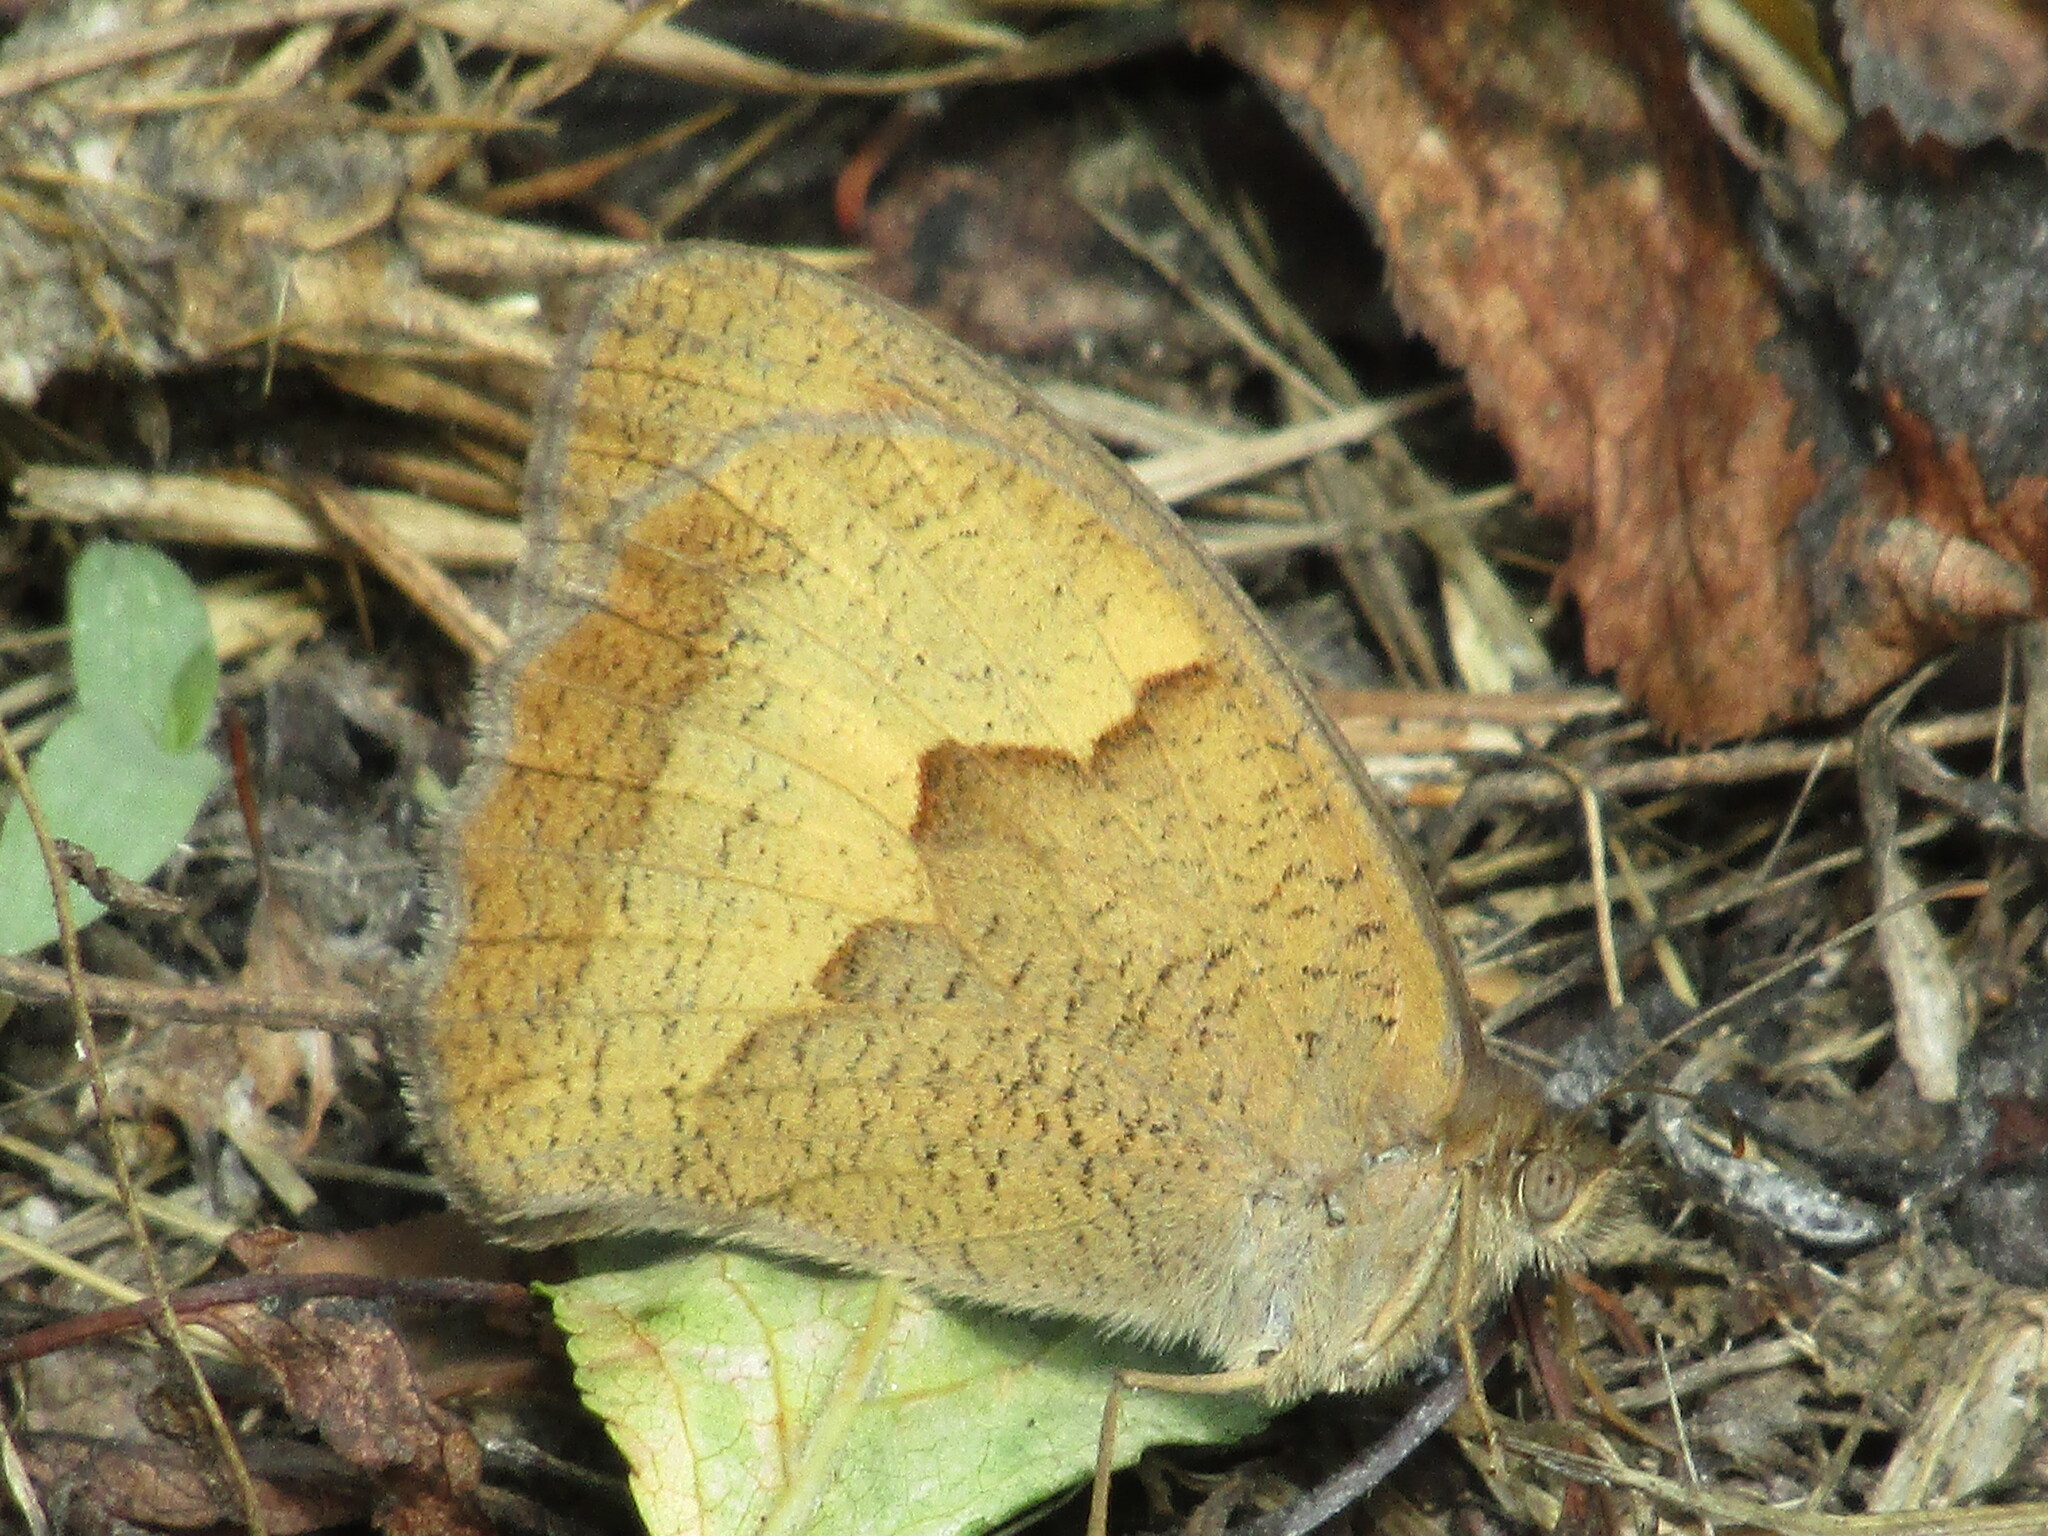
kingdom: Animalia
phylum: Arthropoda
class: Insecta
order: Lepidoptera
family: Nymphalidae
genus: Maniola
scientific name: Maniola jurtina
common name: Meadow brown
